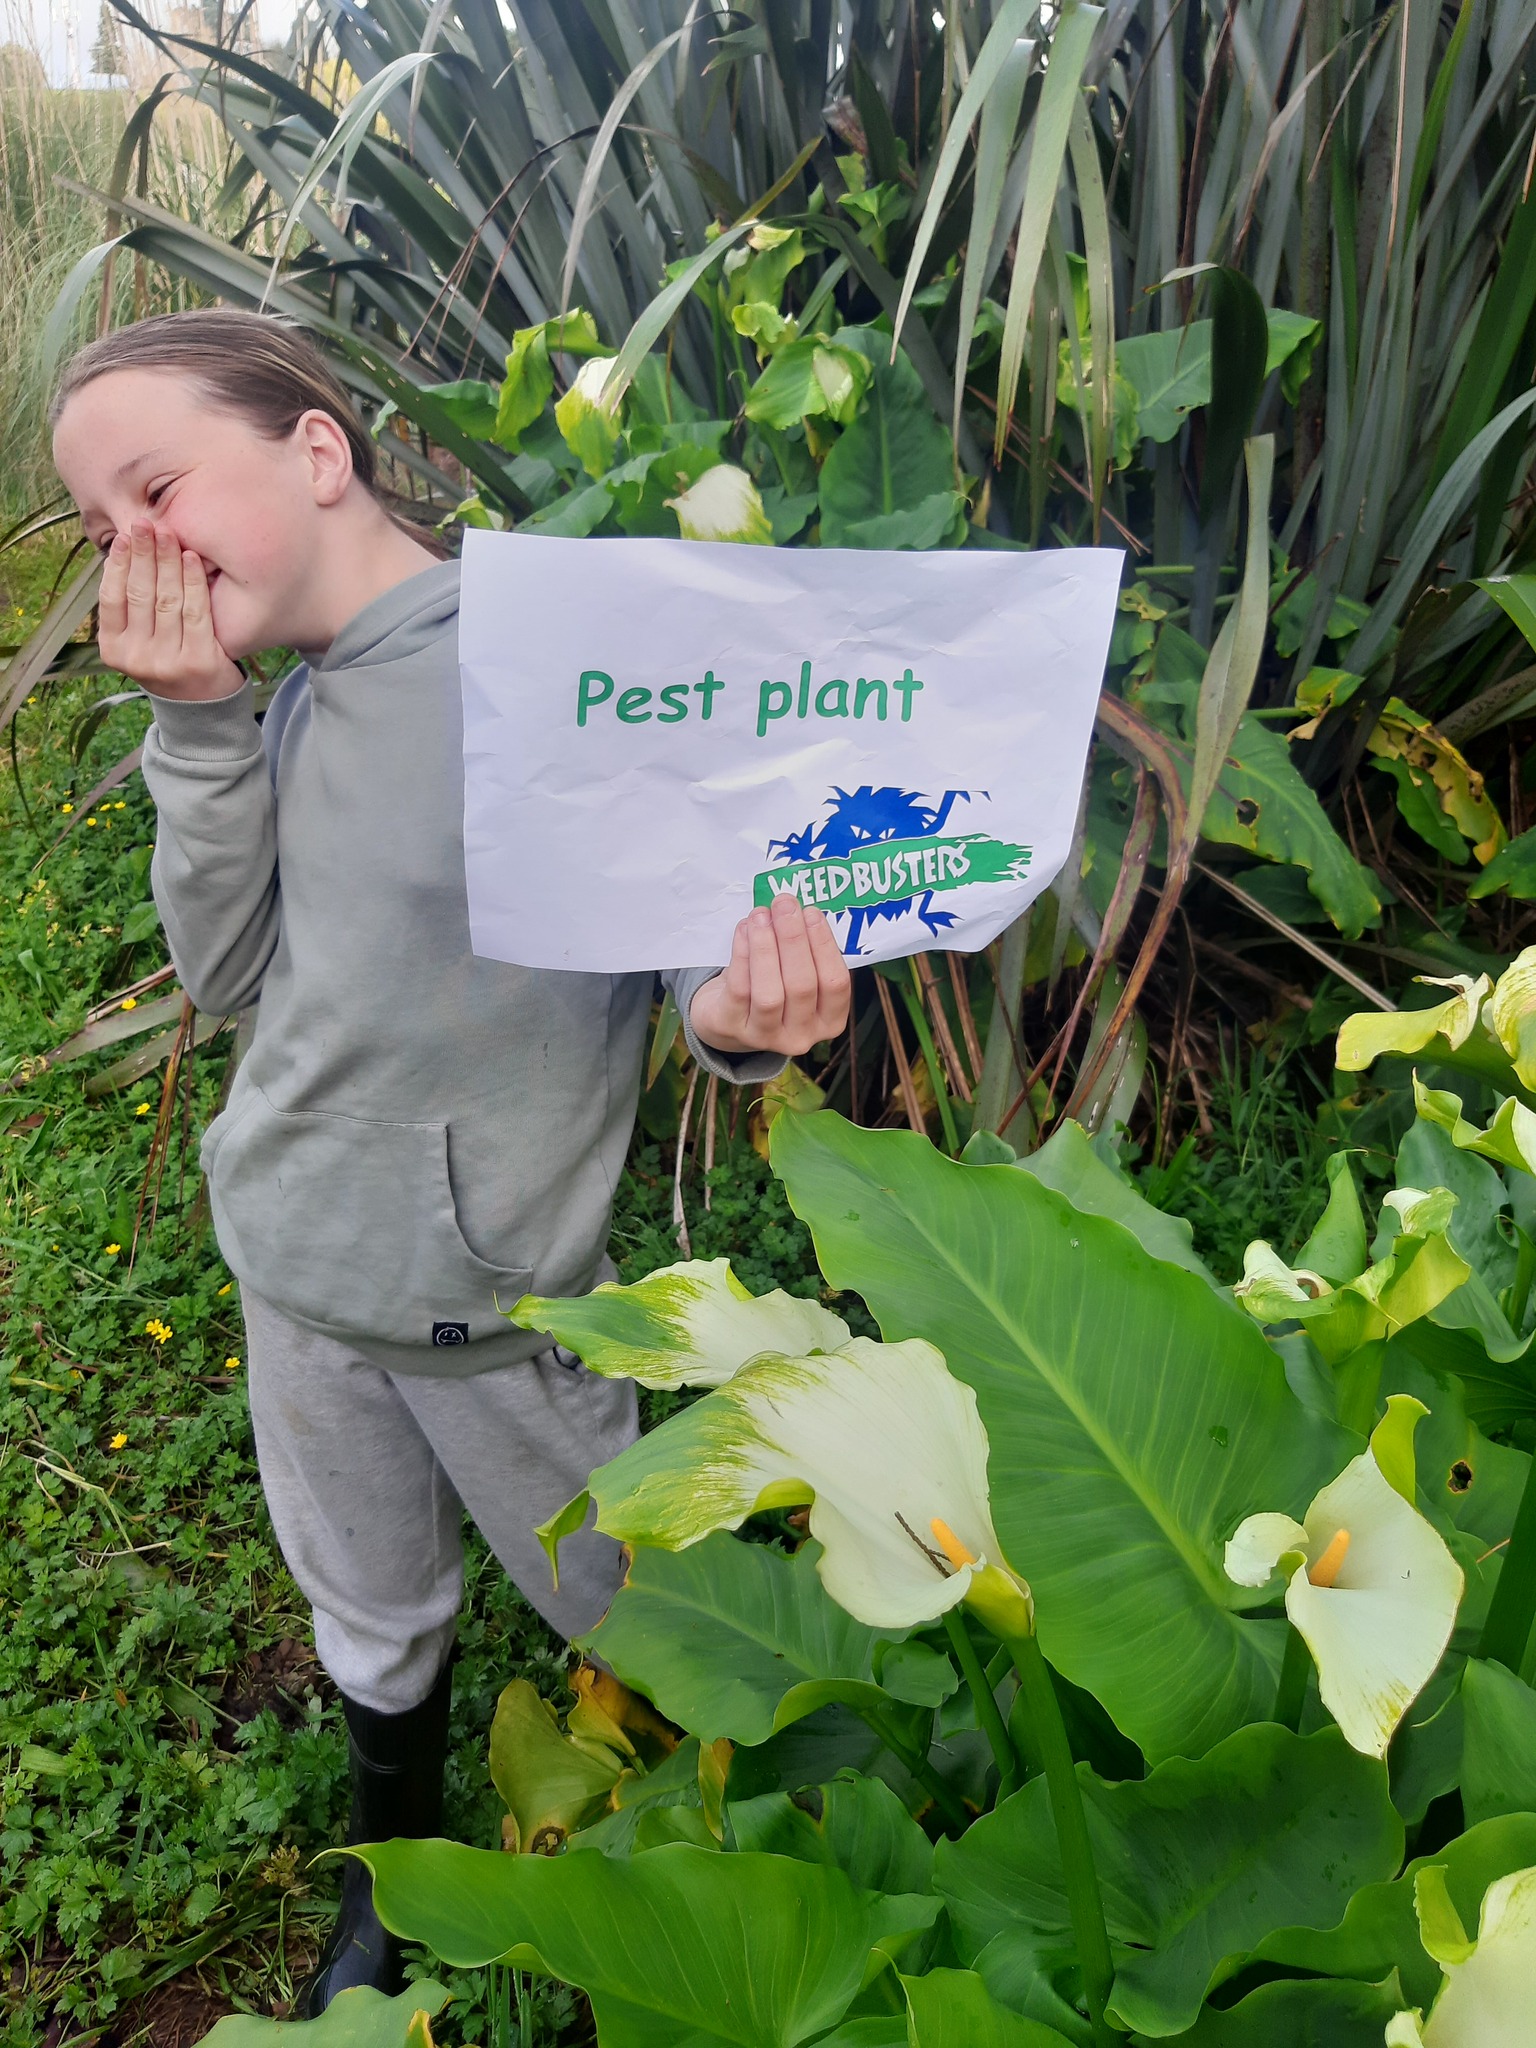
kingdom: Plantae
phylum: Tracheophyta
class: Liliopsida
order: Alismatales
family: Araceae
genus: Zantedeschia
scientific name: Zantedeschia aethiopica
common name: Altar-lily
